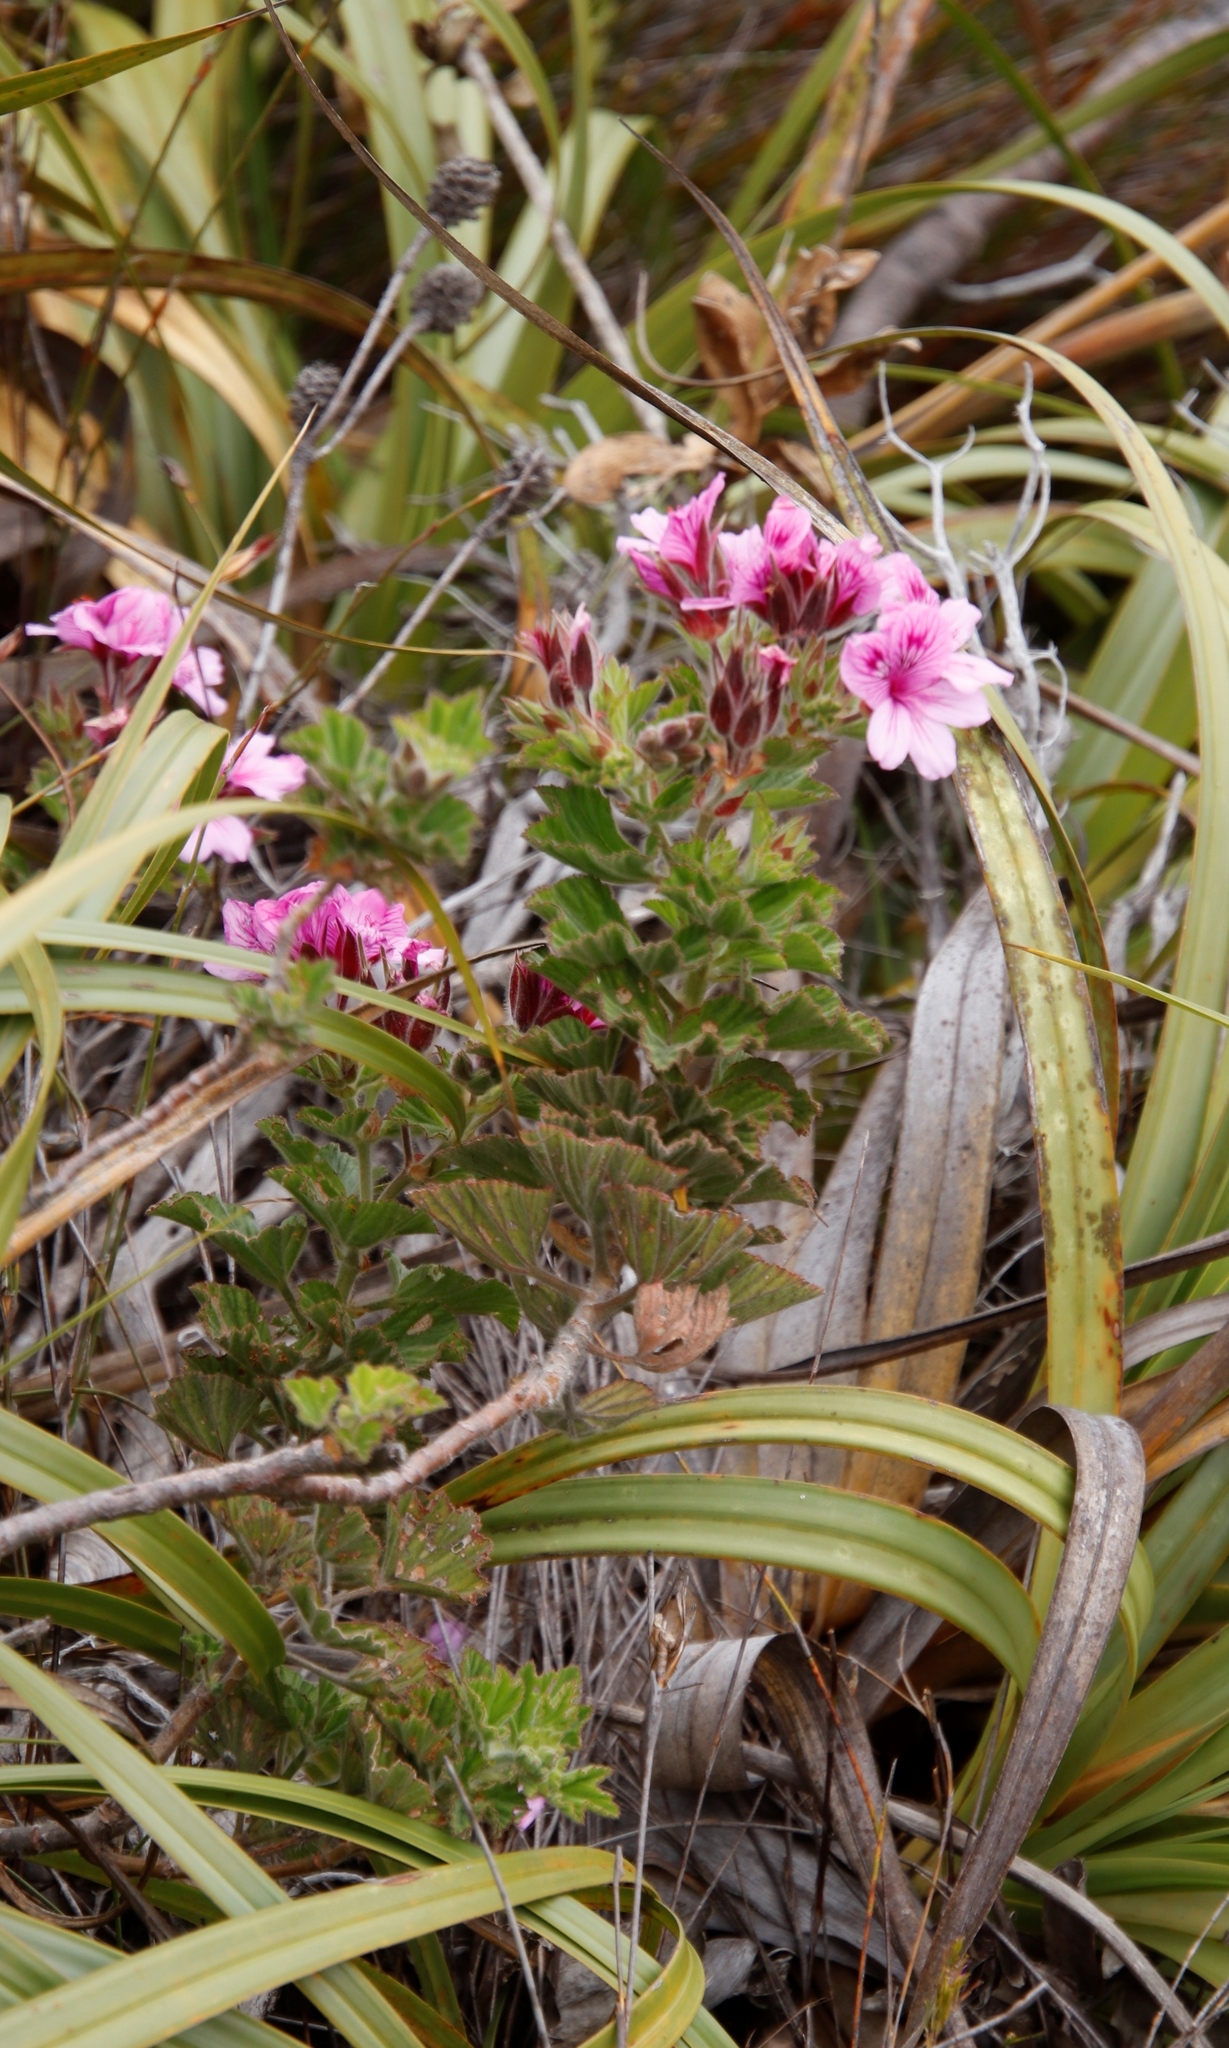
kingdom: Plantae
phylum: Tracheophyta
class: Magnoliopsida
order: Geraniales
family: Geraniaceae
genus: Pelargonium
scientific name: Pelargonium cucullatum
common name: Tree pelargonium
